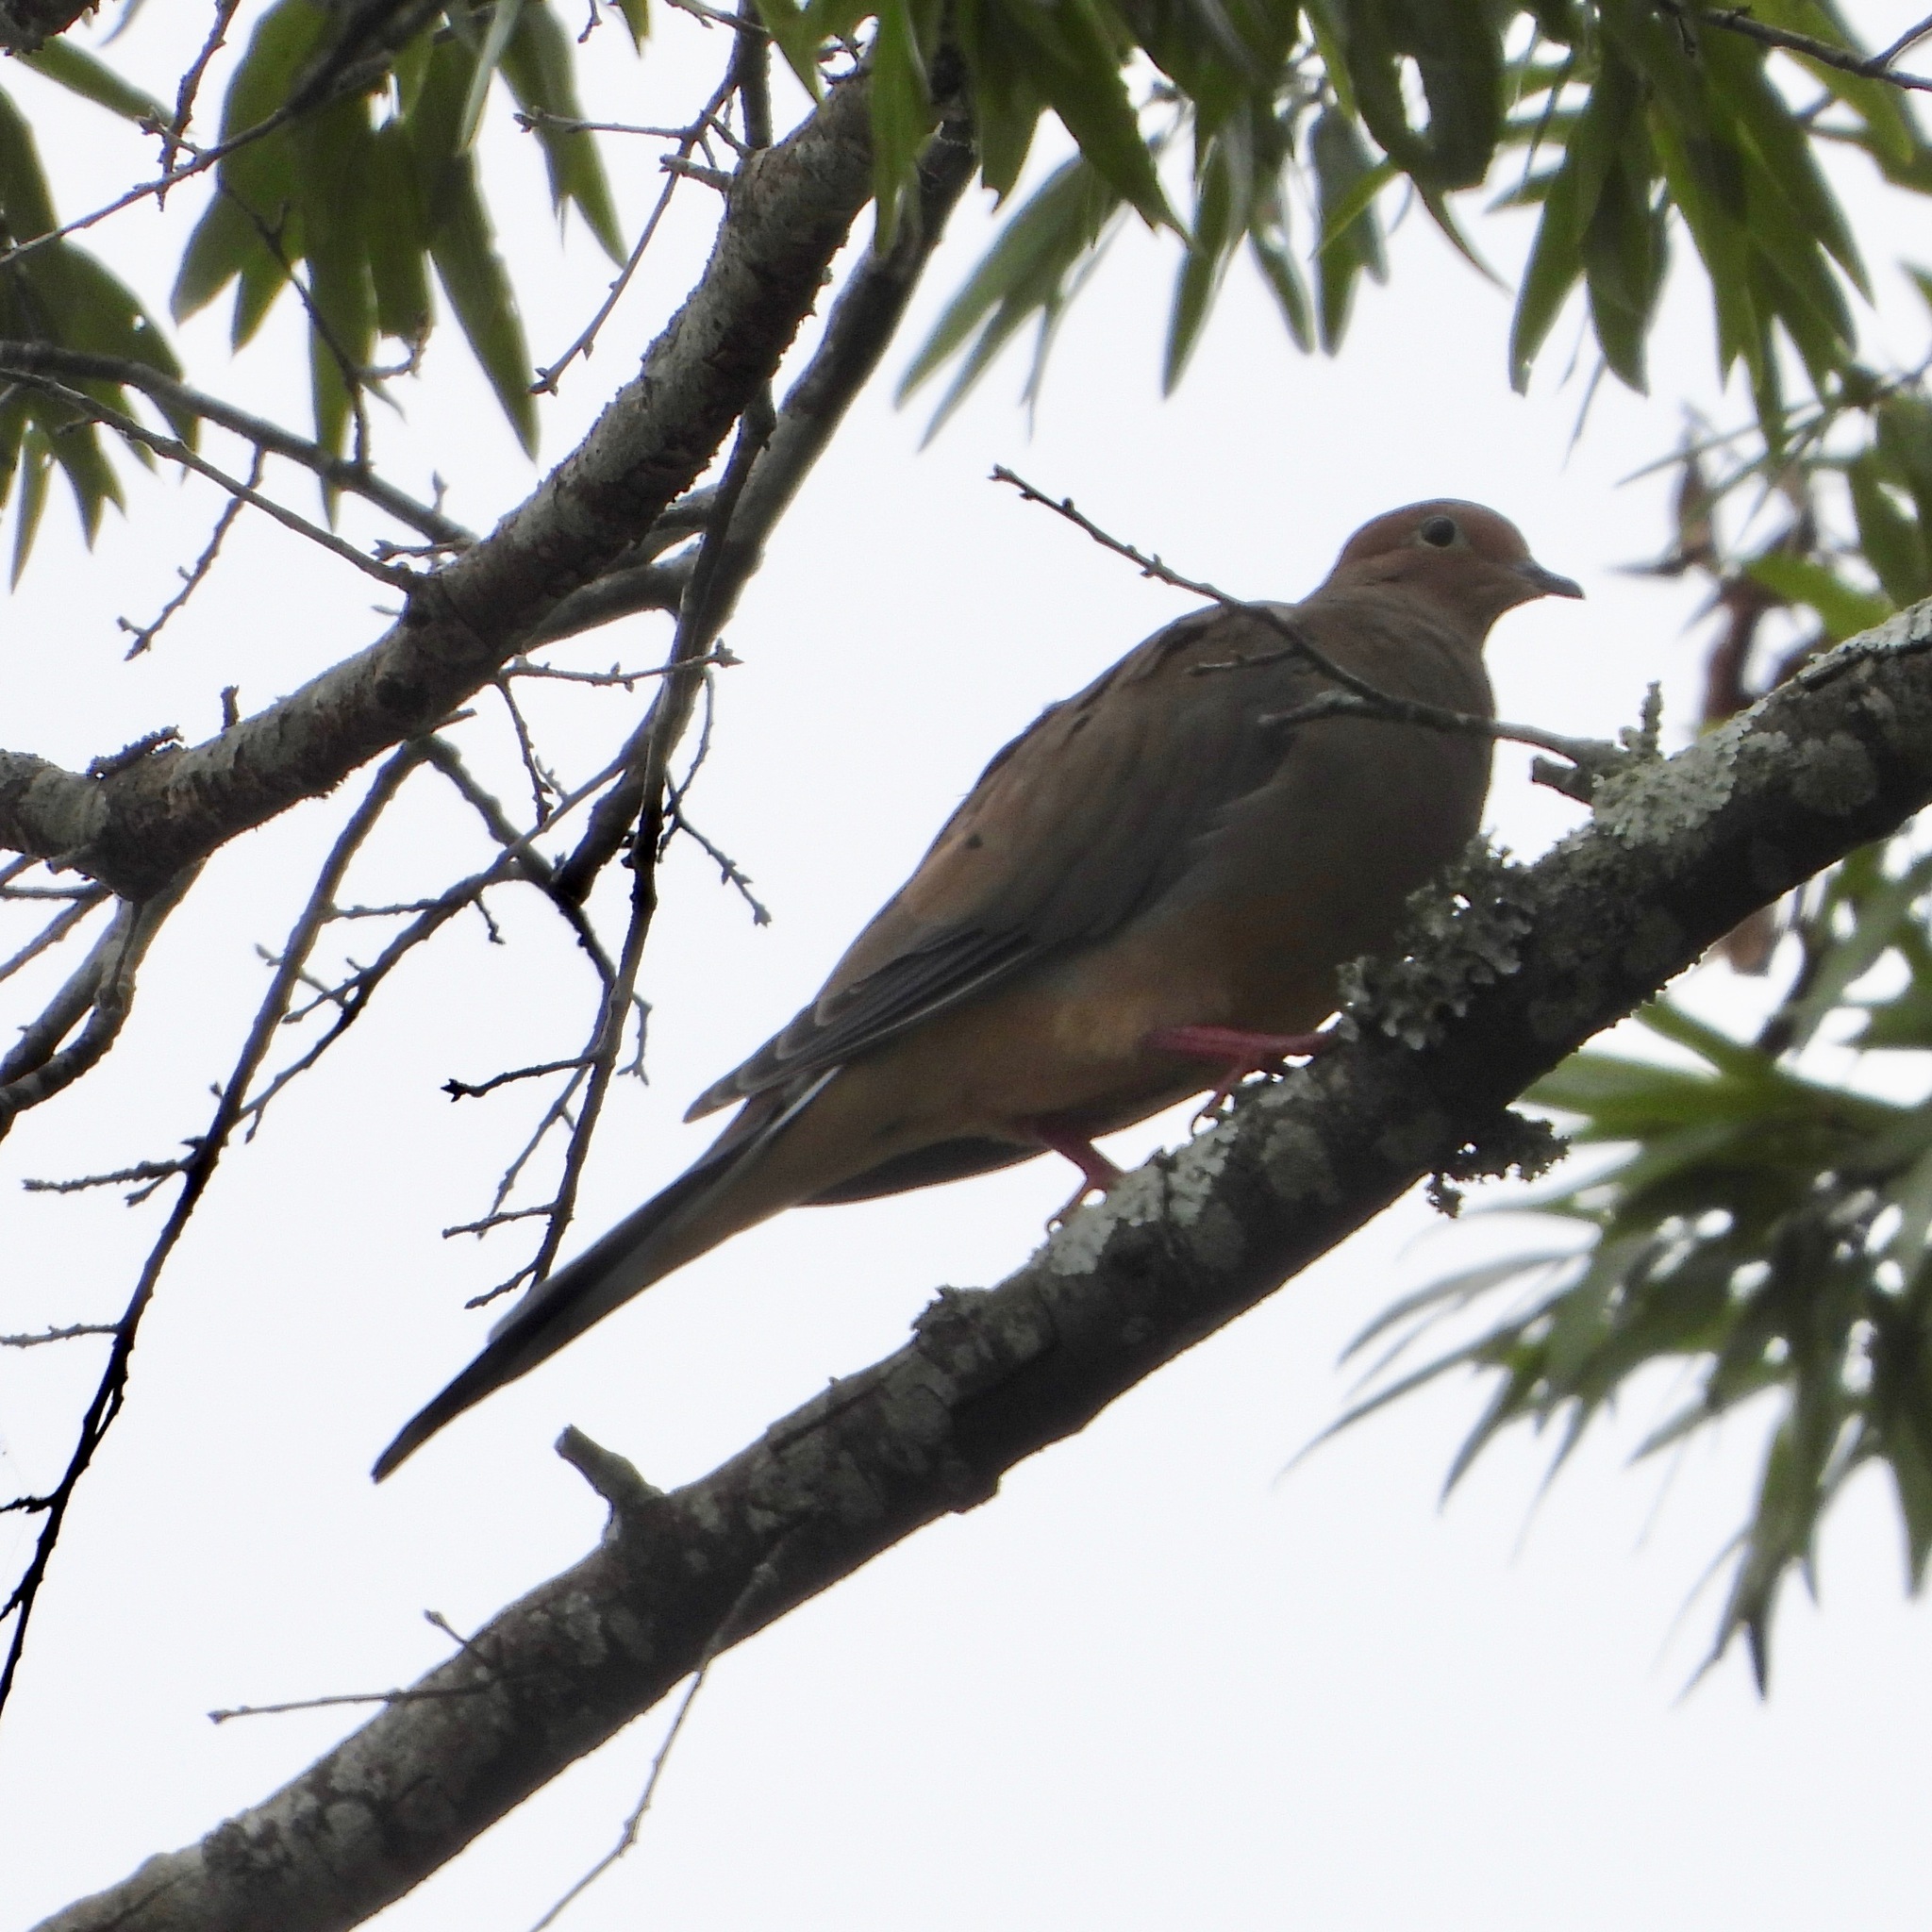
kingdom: Animalia
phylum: Chordata
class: Aves
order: Columbiformes
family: Columbidae
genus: Zenaida
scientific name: Zenaida macroura
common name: Mourning dove
